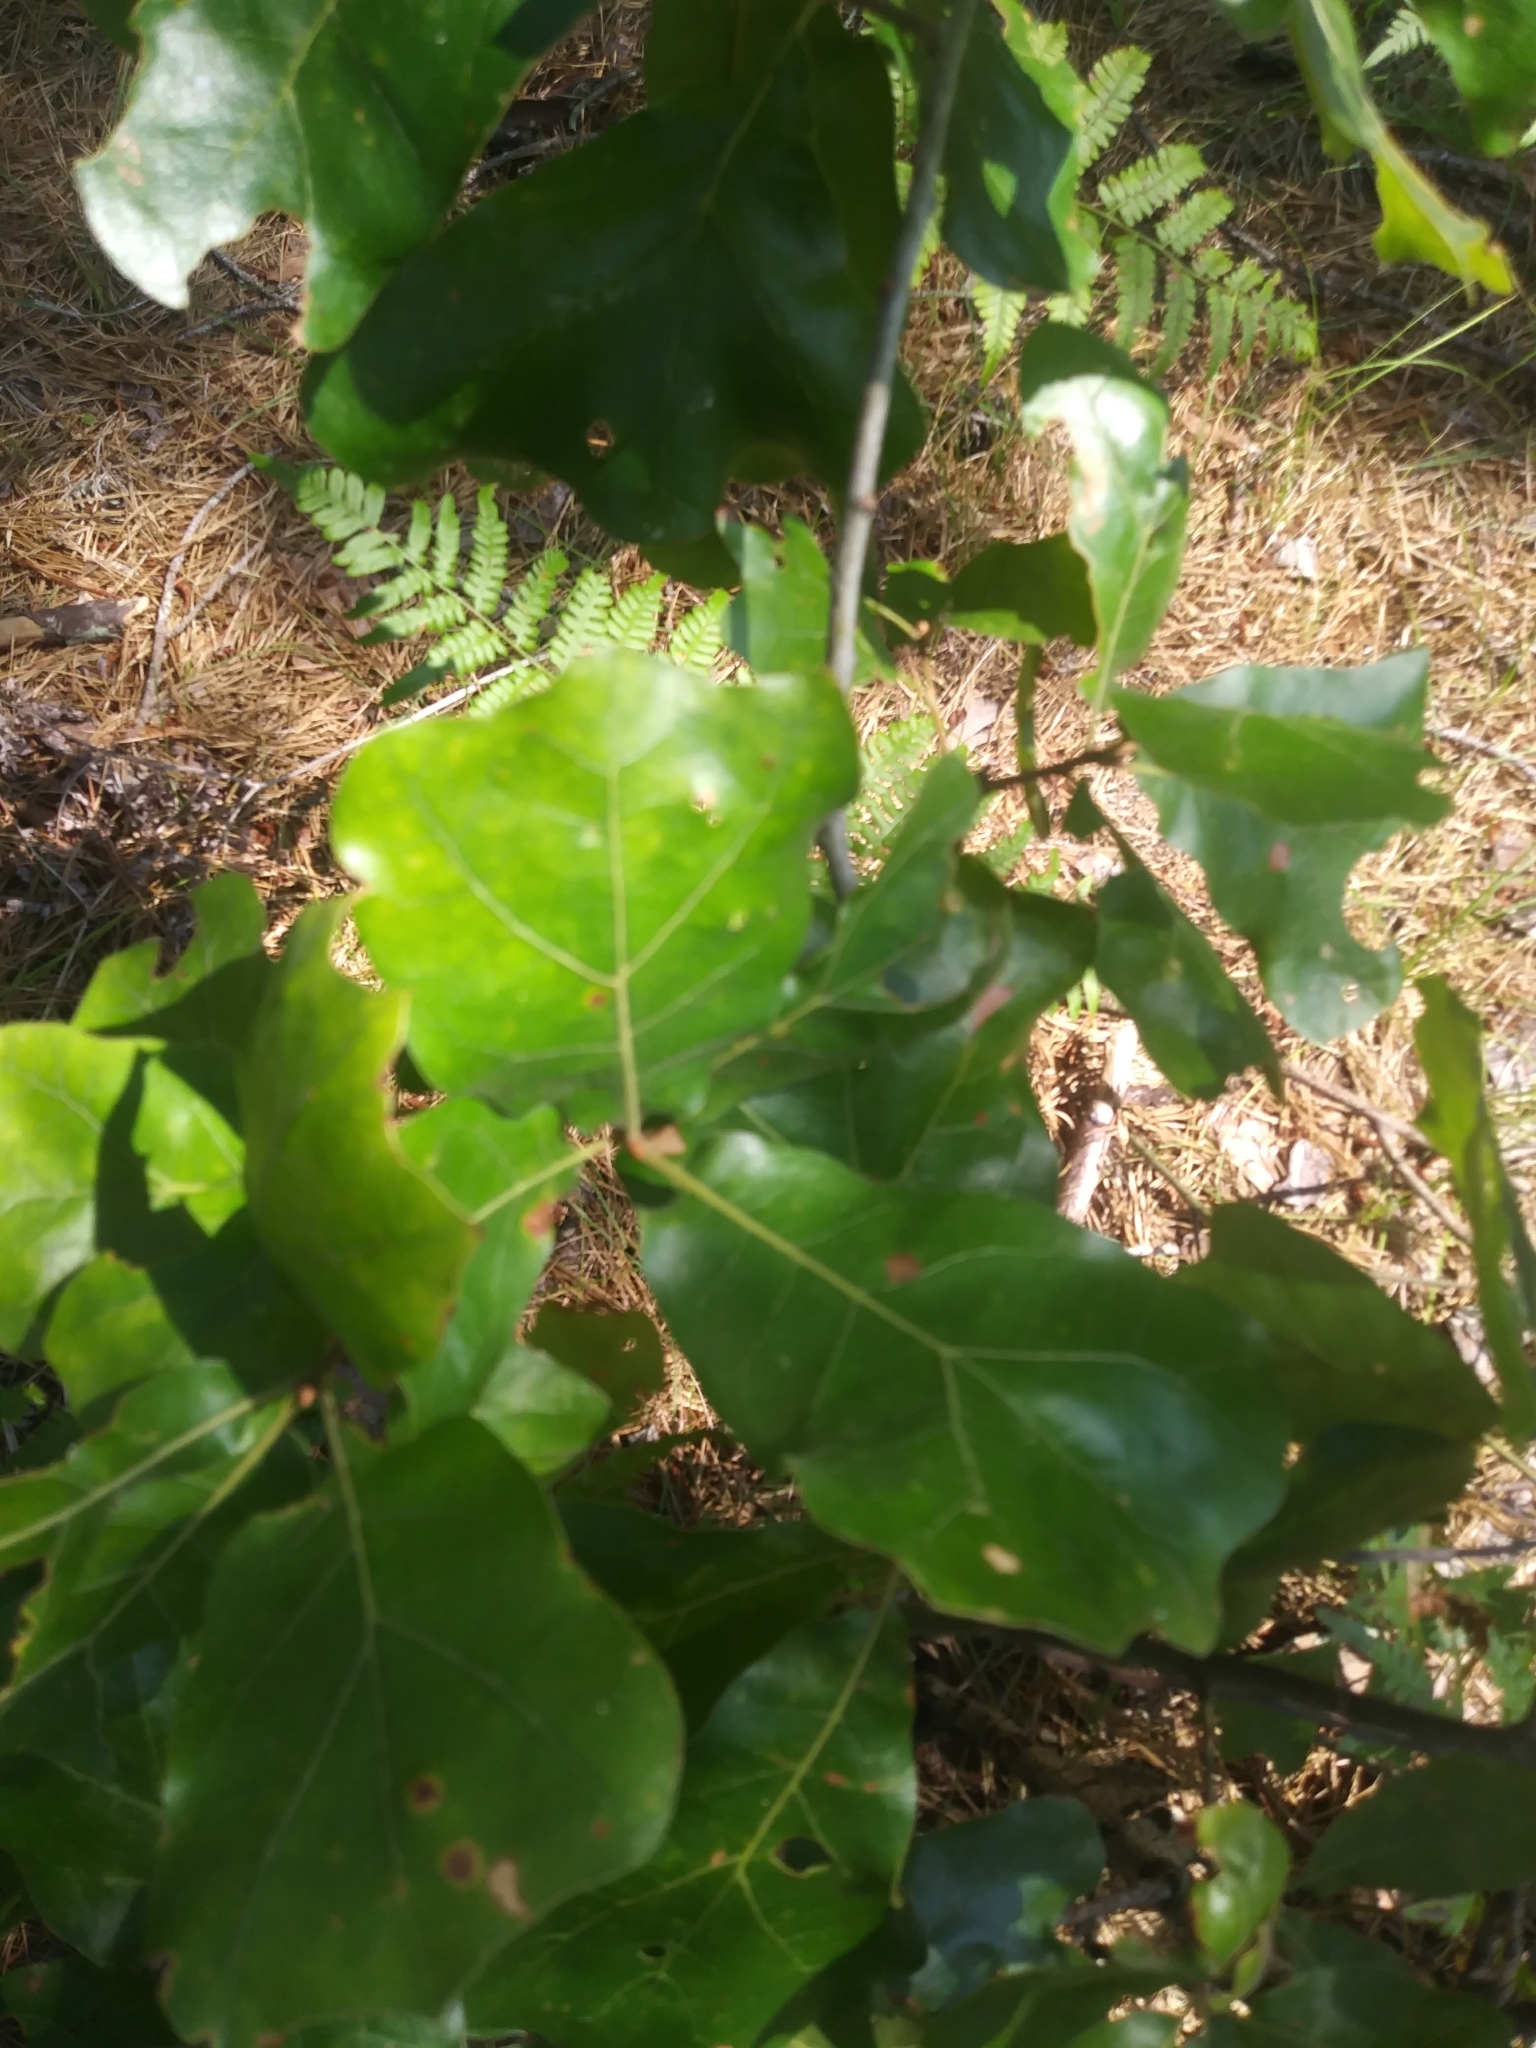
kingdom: Plantae
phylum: Tracheophyta
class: Magnoliopsida
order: Fagales
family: Fagaceae
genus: Quercus
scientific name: Quercus marilandica
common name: Blackjack oak
